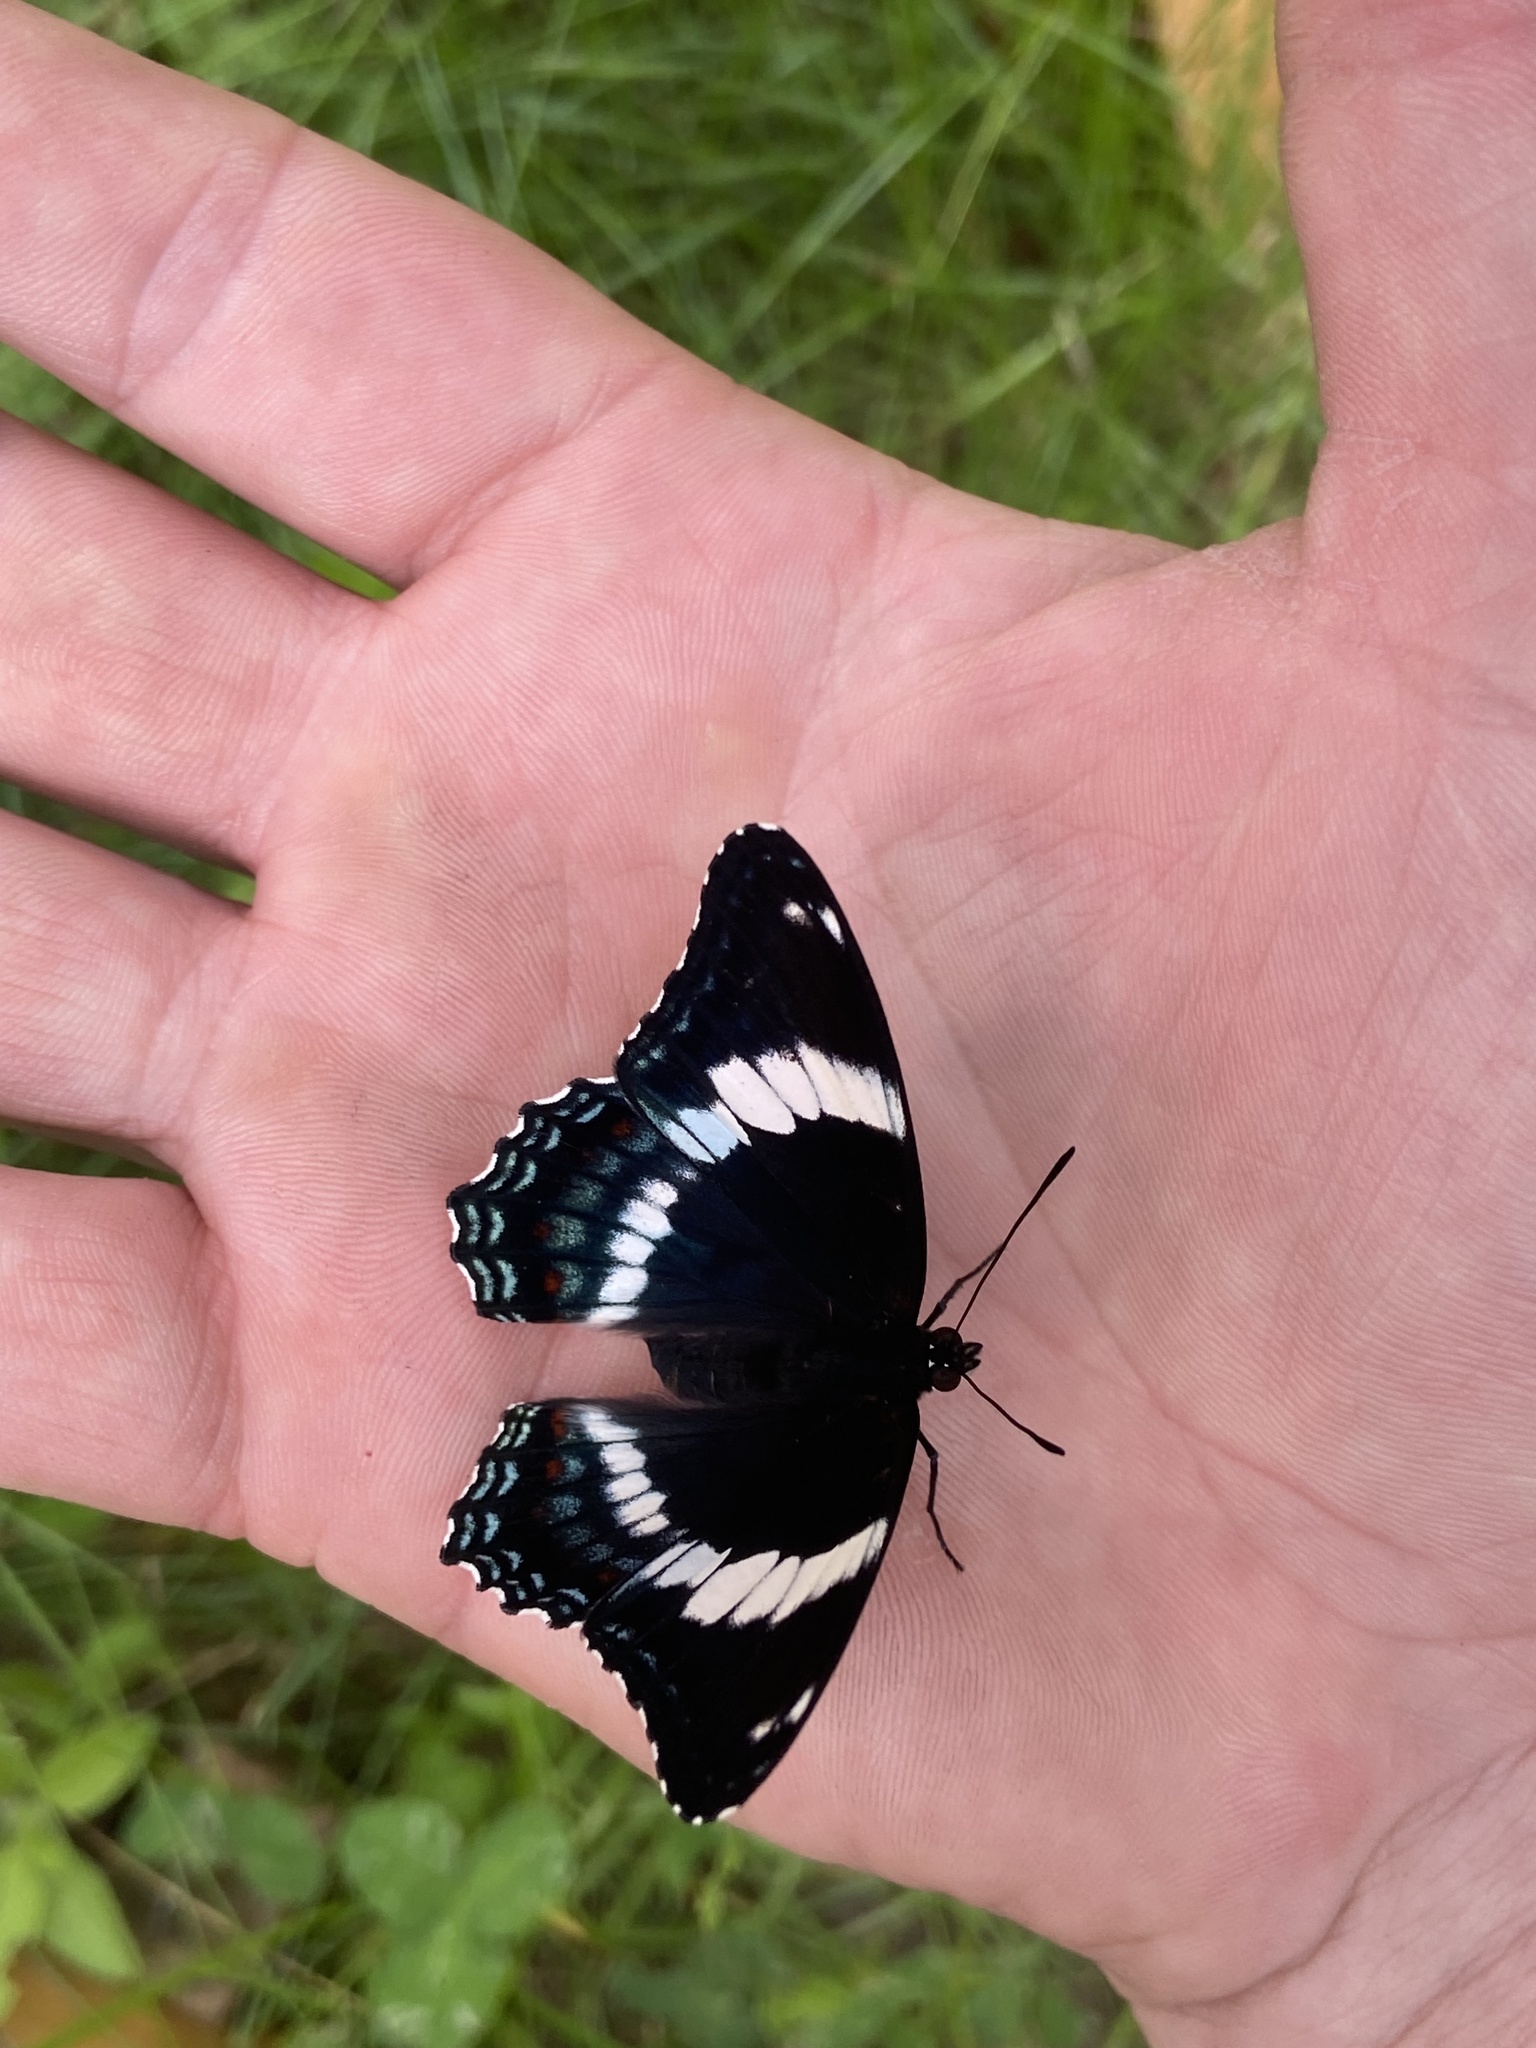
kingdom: Animalia
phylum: Arthropoda
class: Insecta
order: Lepidoptera
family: Nymphalidae
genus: Limenitis
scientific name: Limenitis arthemis
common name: Red-spotted admiral
